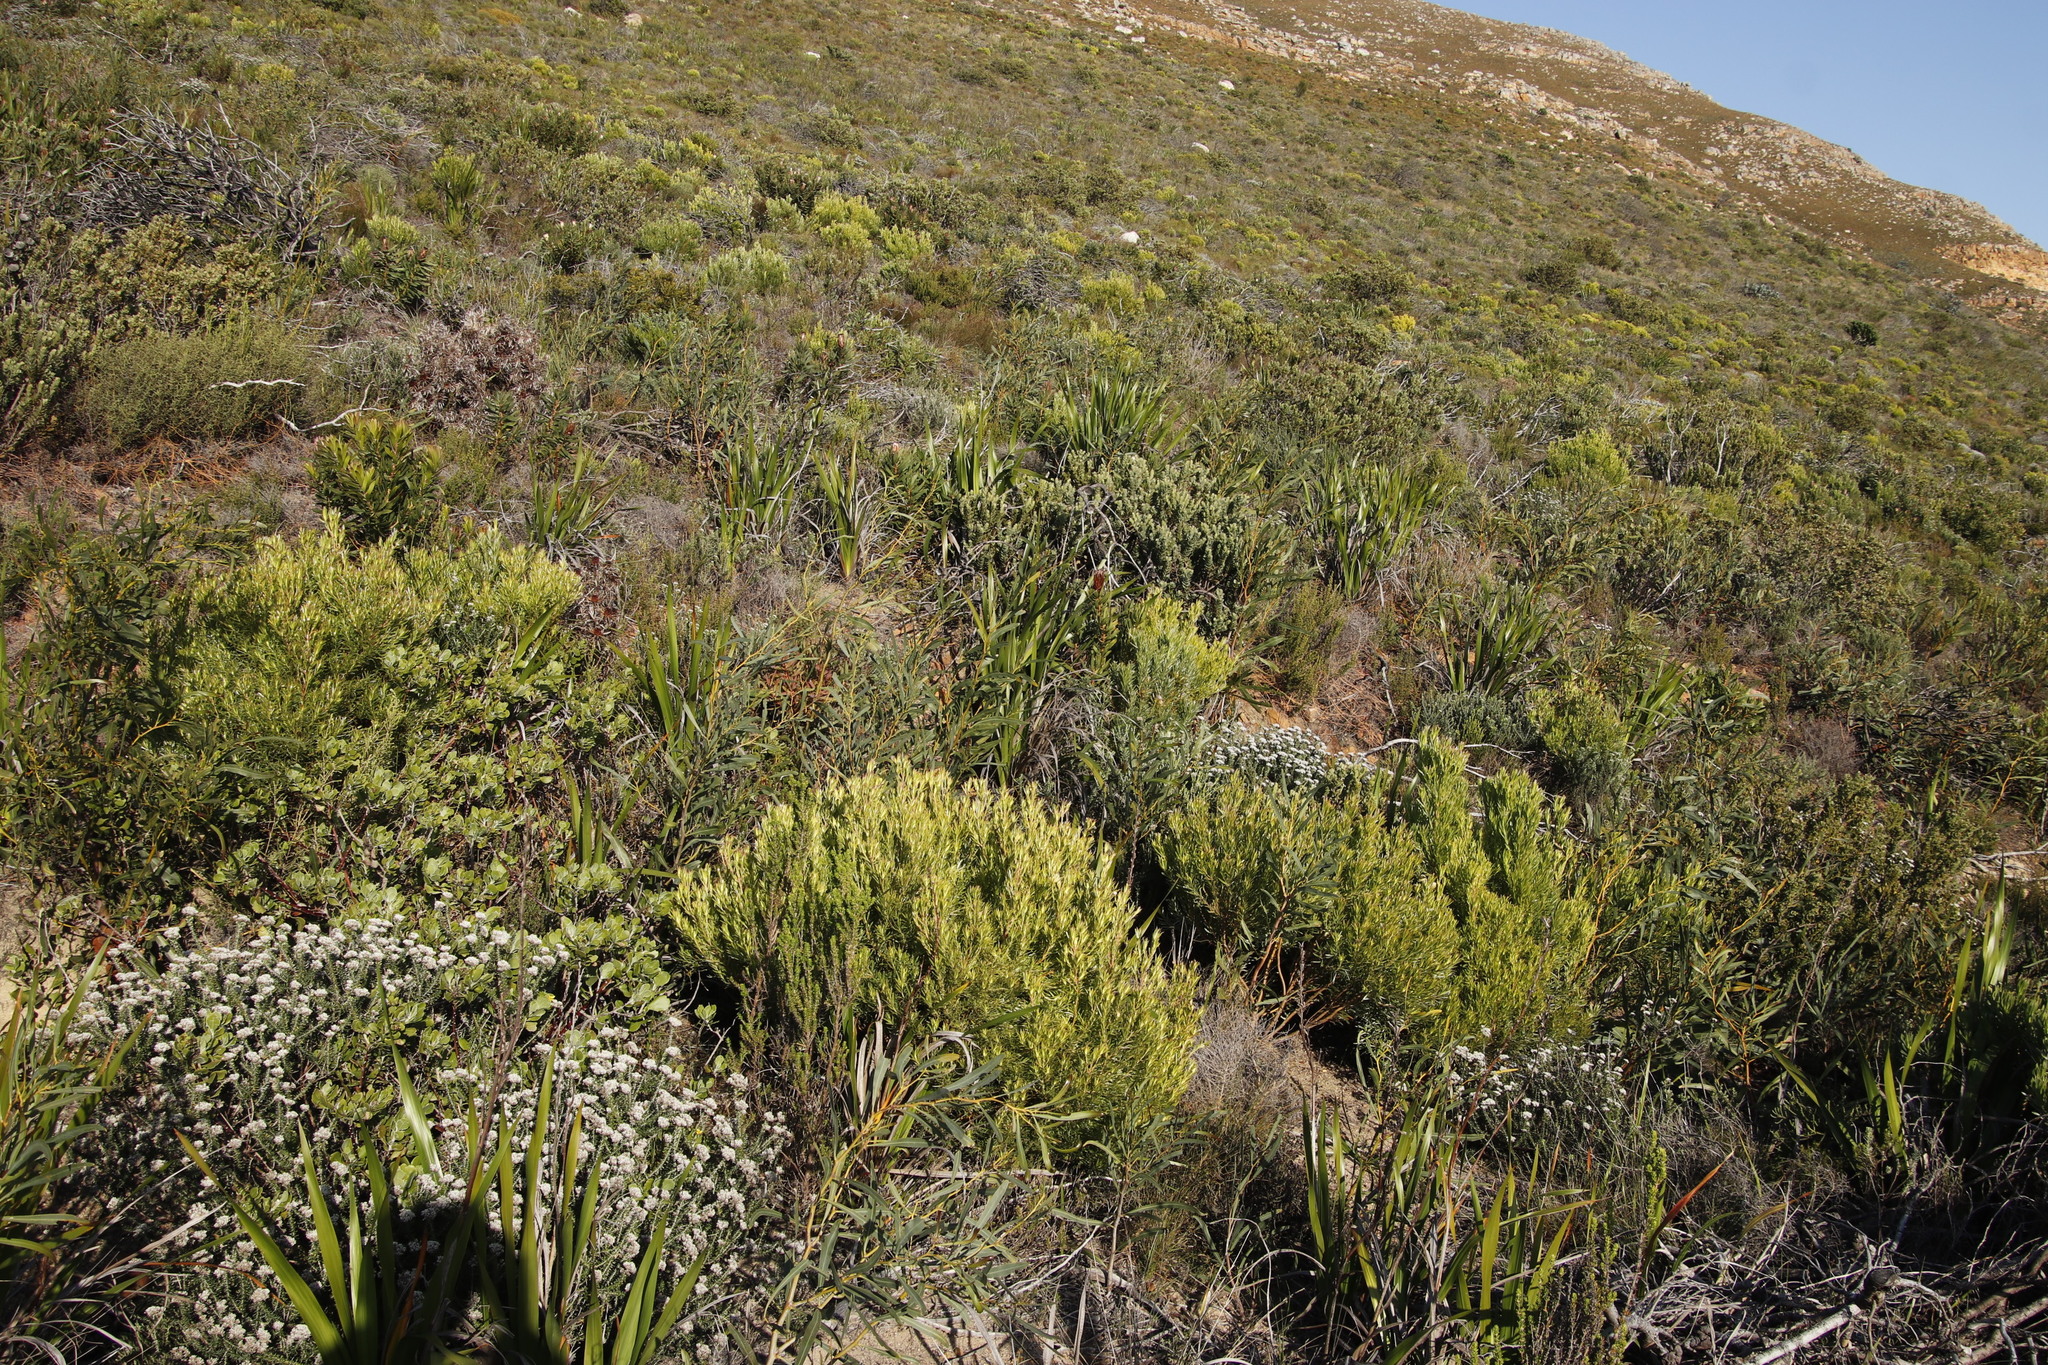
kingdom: Plantae
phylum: Tracheophyta
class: Magnoliopsida
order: Proteales
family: Proteaceae
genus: Leucadendron
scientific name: Leucadendron xanthoconus
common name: Sickle-leaf conebush
